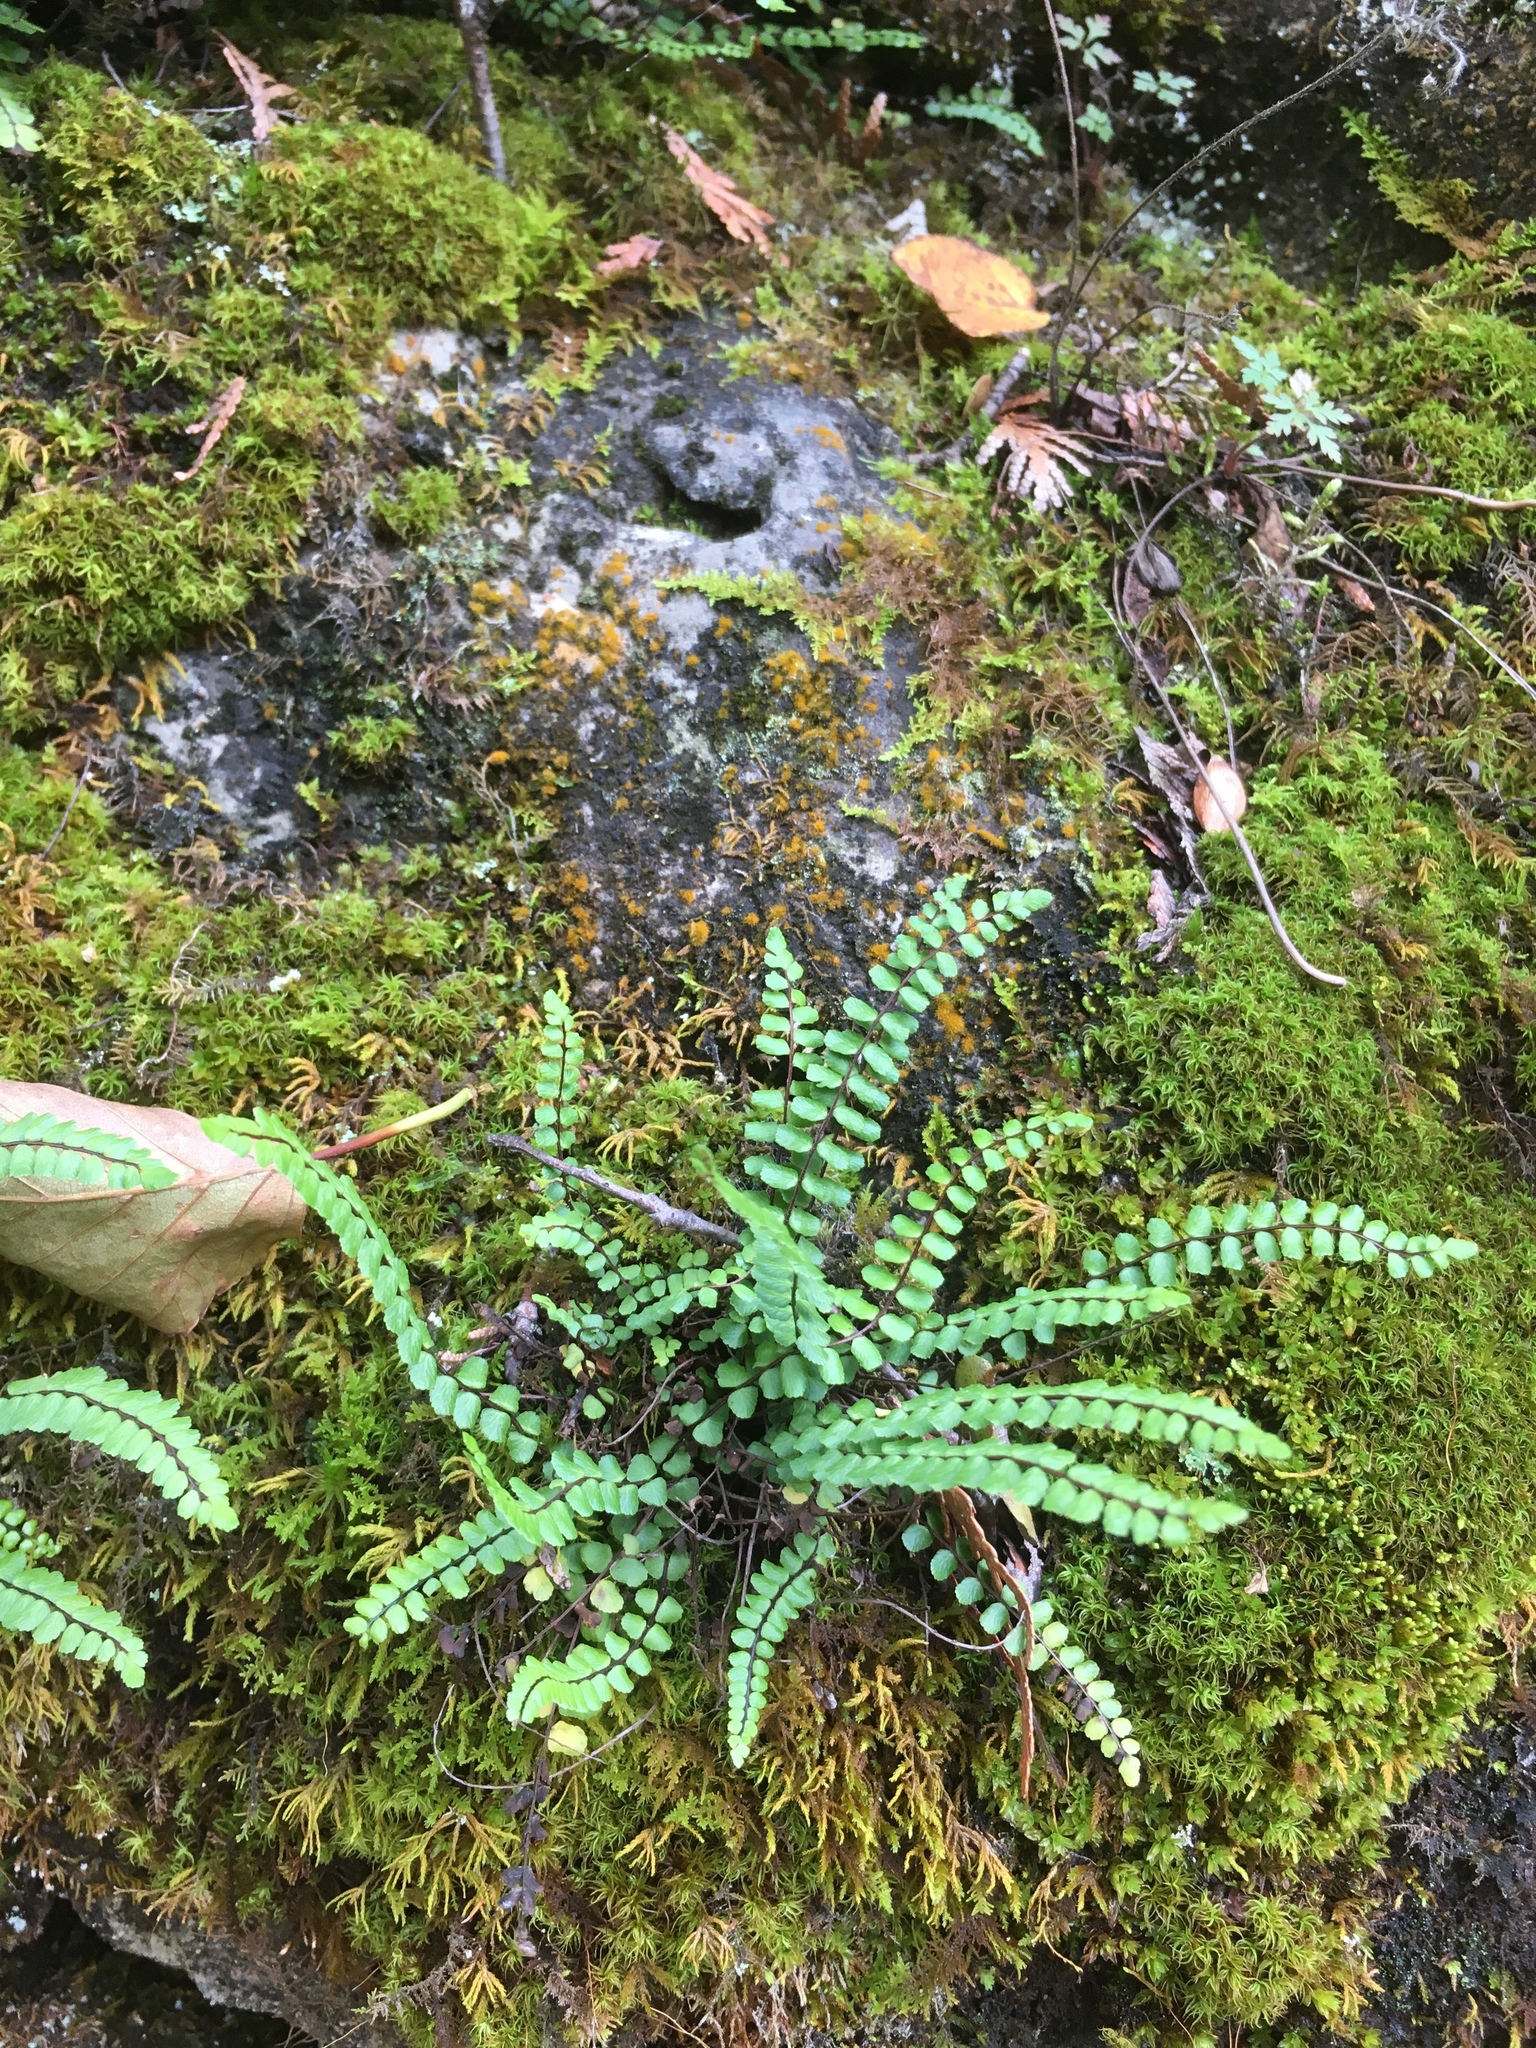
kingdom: Plantae
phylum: Tracheophyta
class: Polypodiopsida
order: Polypodiales
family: Aspleniaceae
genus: Asplenium
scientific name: Asplenium trichomanes
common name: Maidenhair spleenwort
